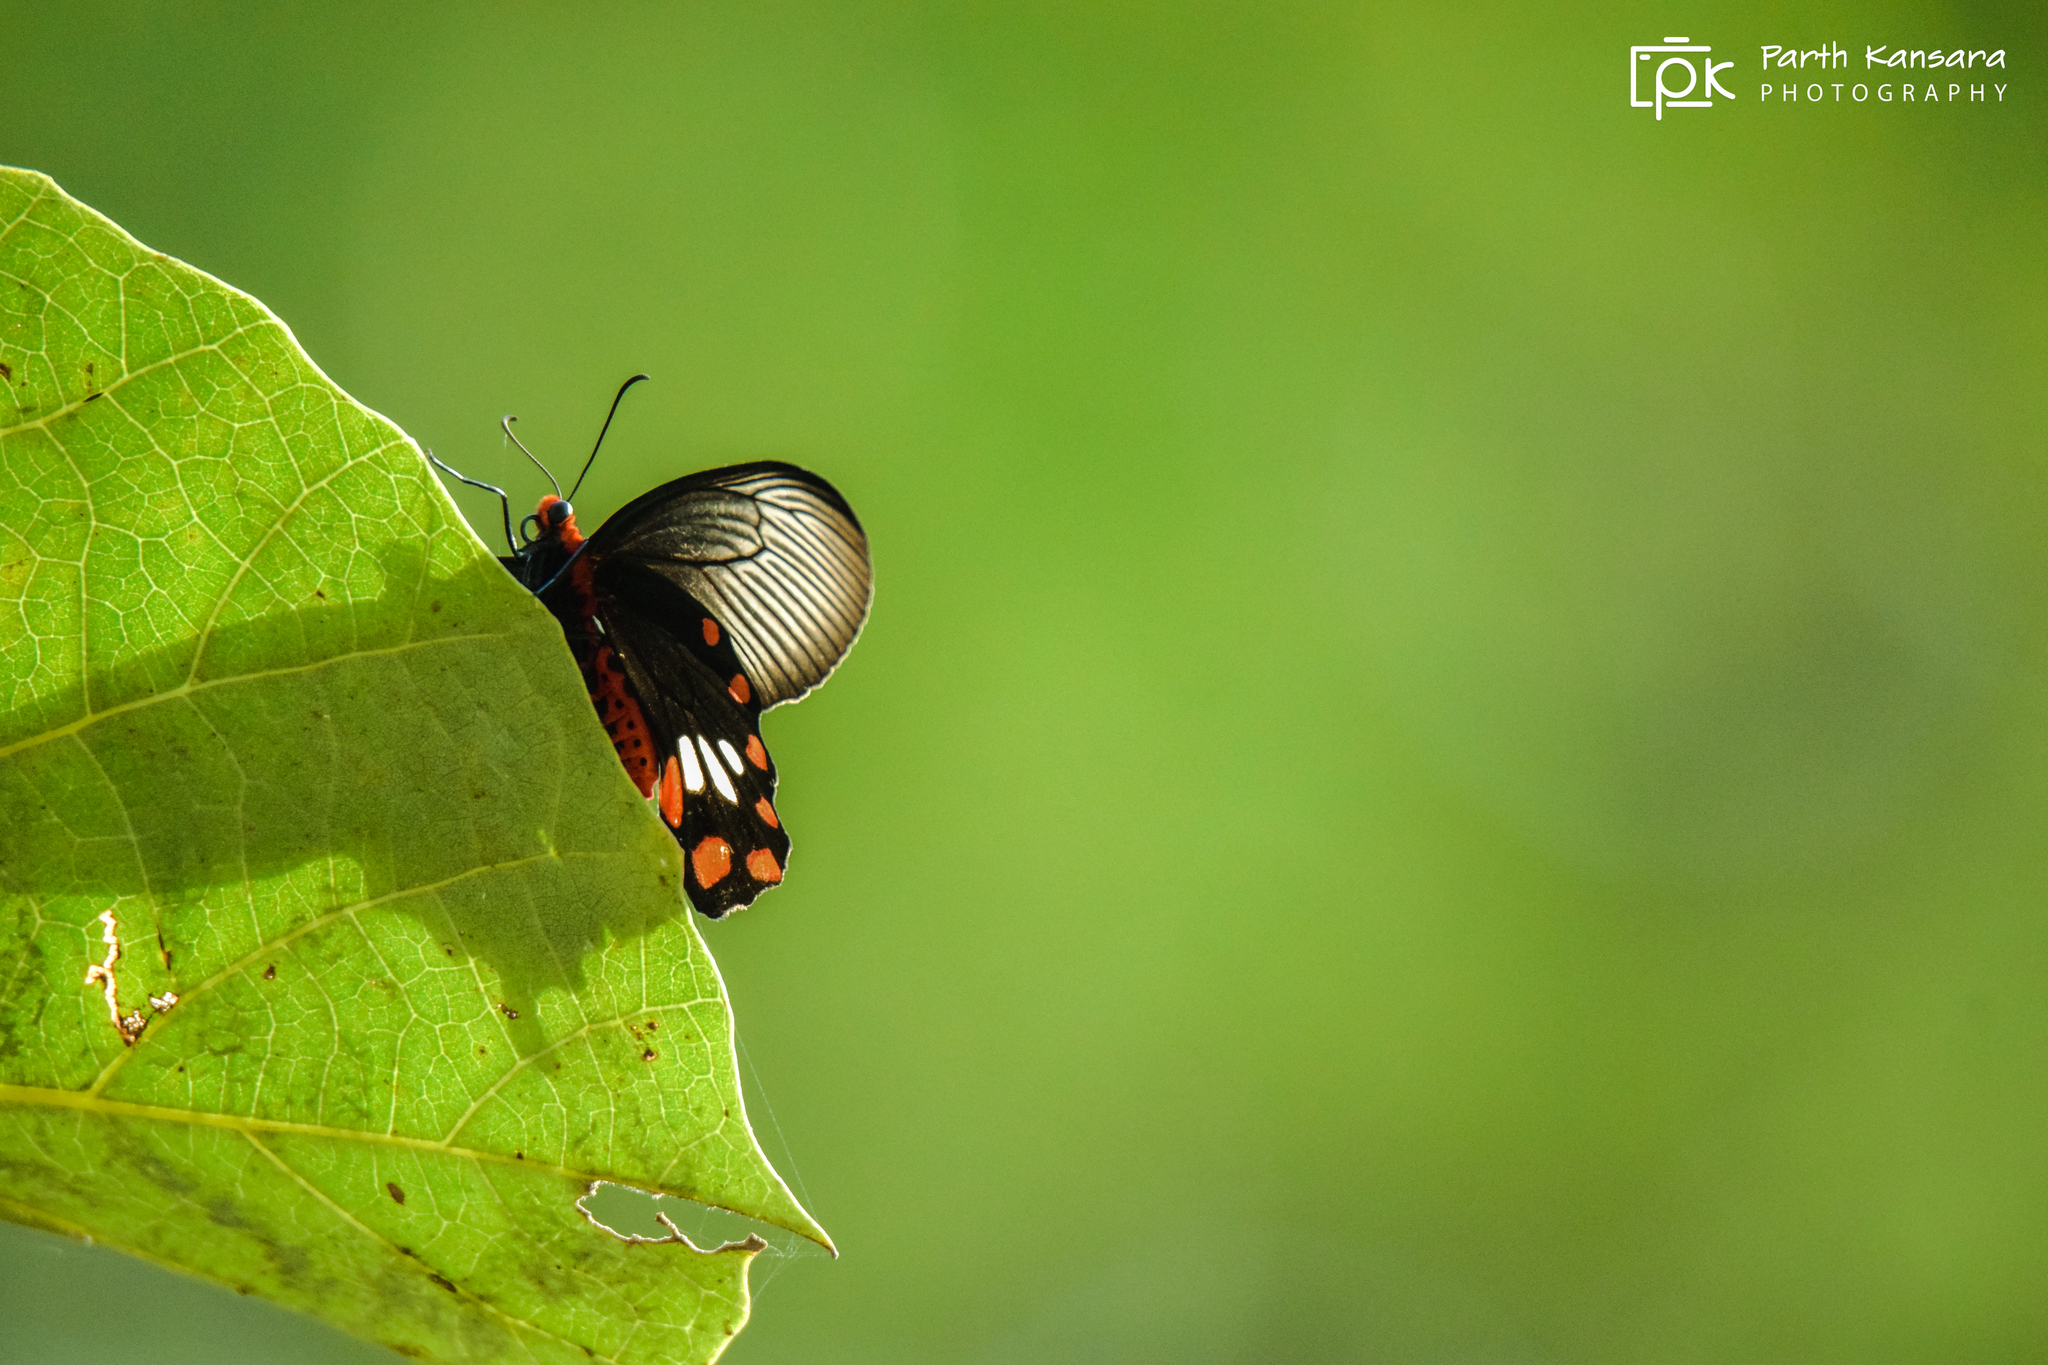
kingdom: Animalia
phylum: Arthropoda
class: Insecta
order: Lepidoptera
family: Papilionidae
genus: Pachliopta
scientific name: Pachliopta aristolochiae
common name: Common rose
